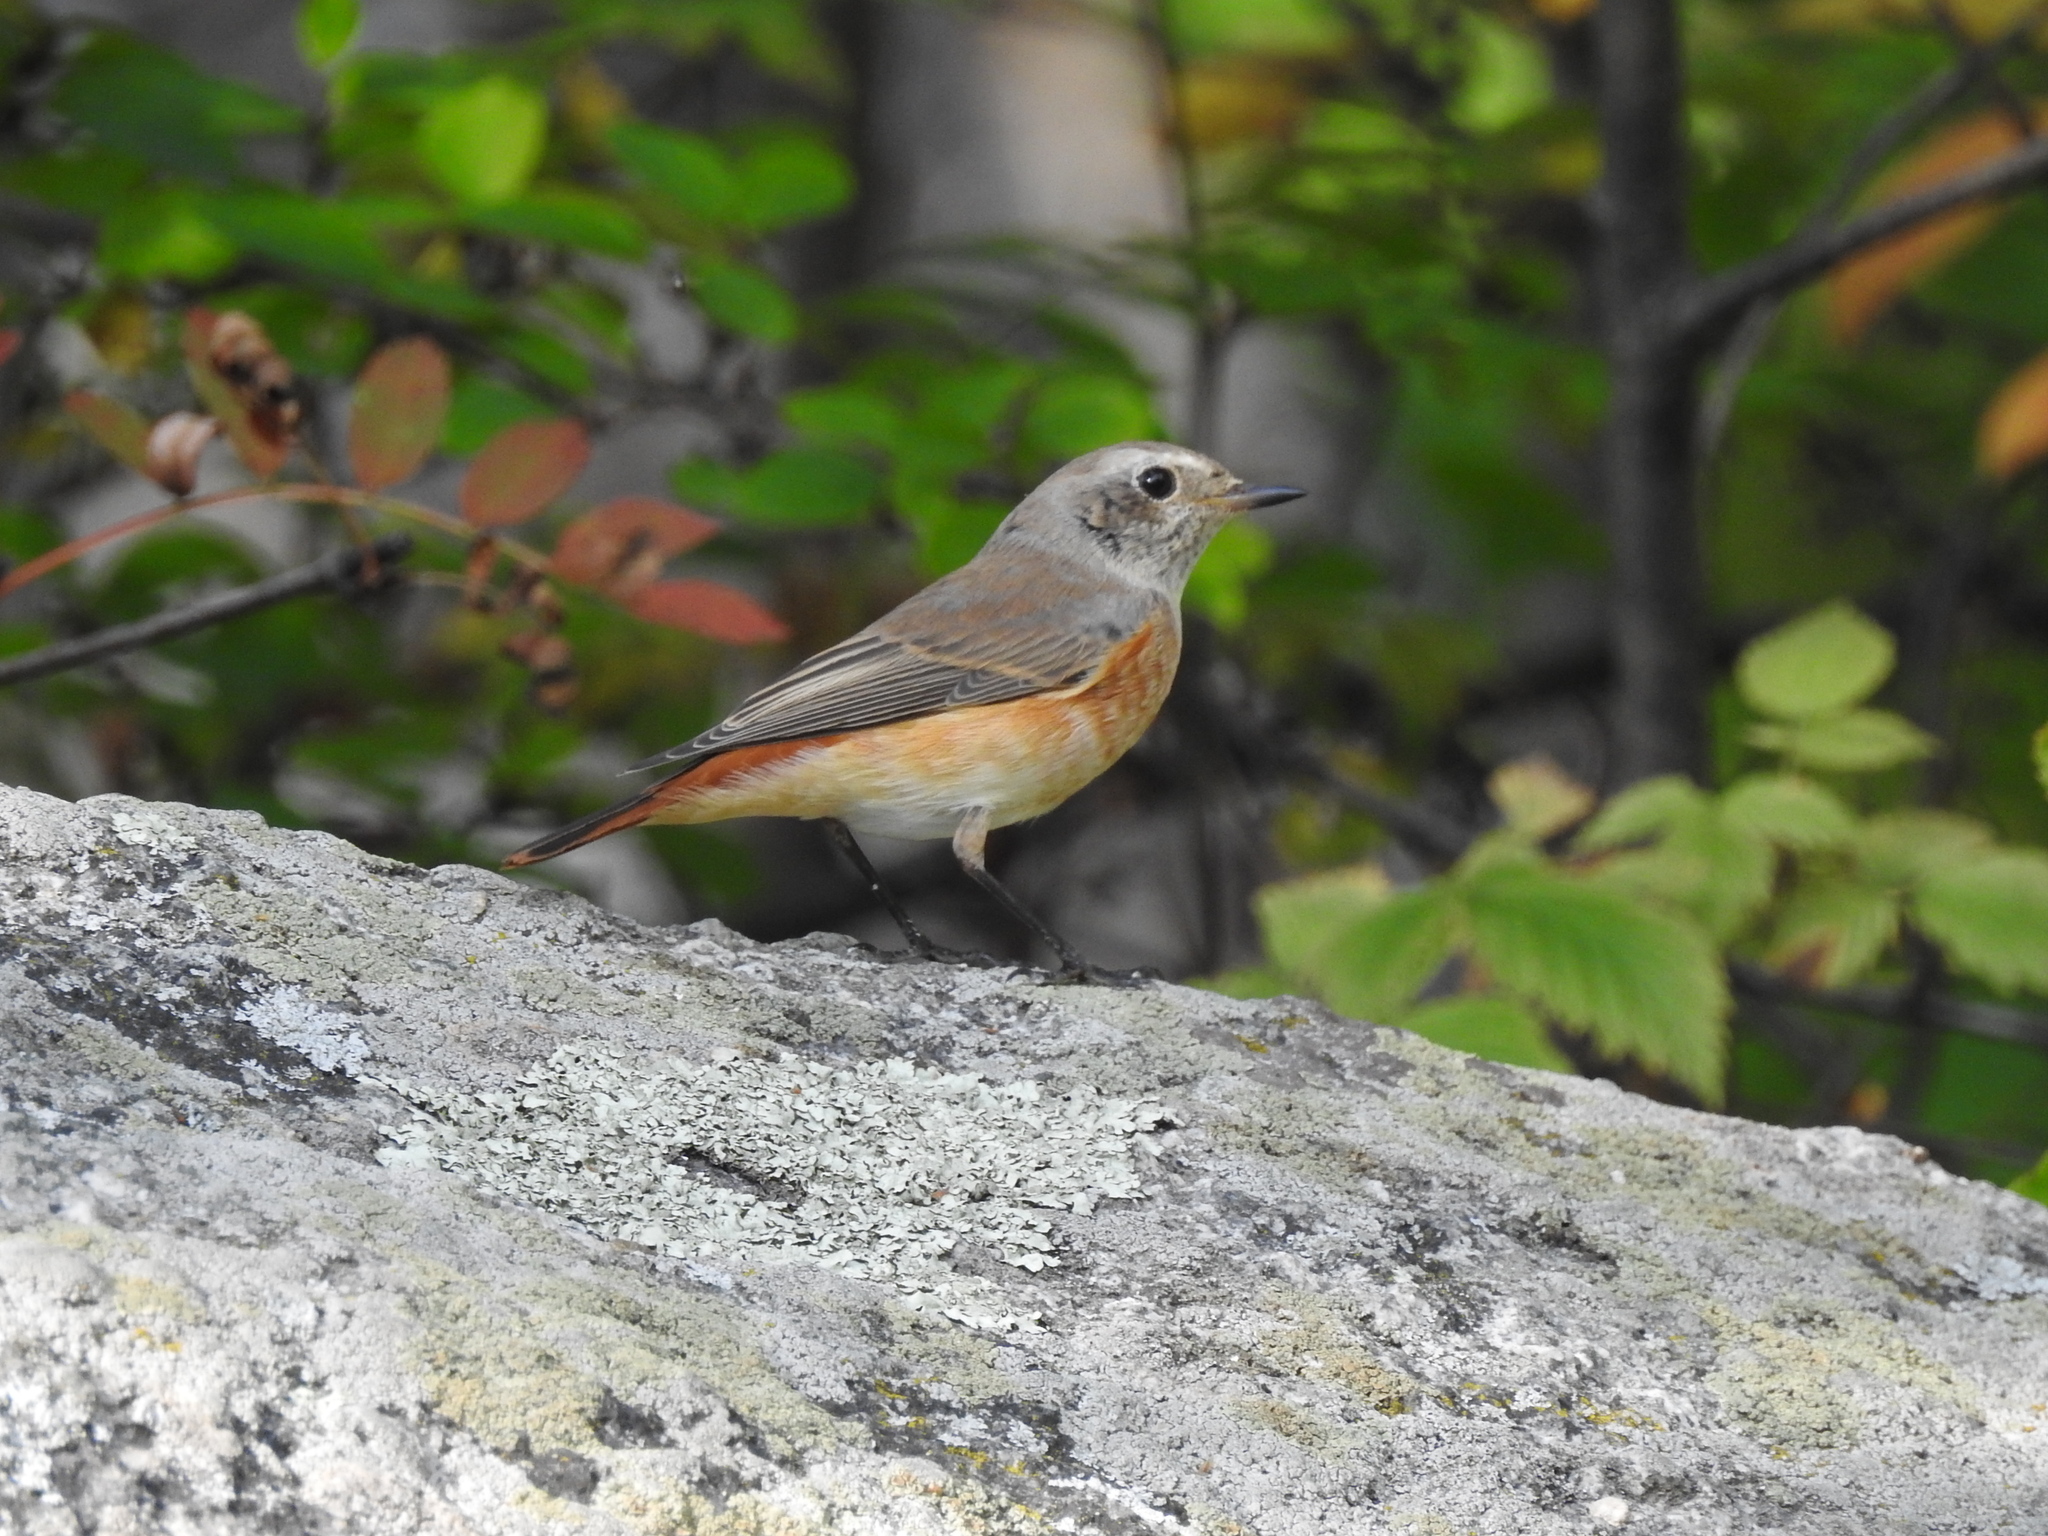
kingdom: Animalia
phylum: Chordata
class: Aves
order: Passeriformes
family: Muscicapidae
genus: Phoenicurus
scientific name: Phoenicurus phoenicurus
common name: Common redstart
